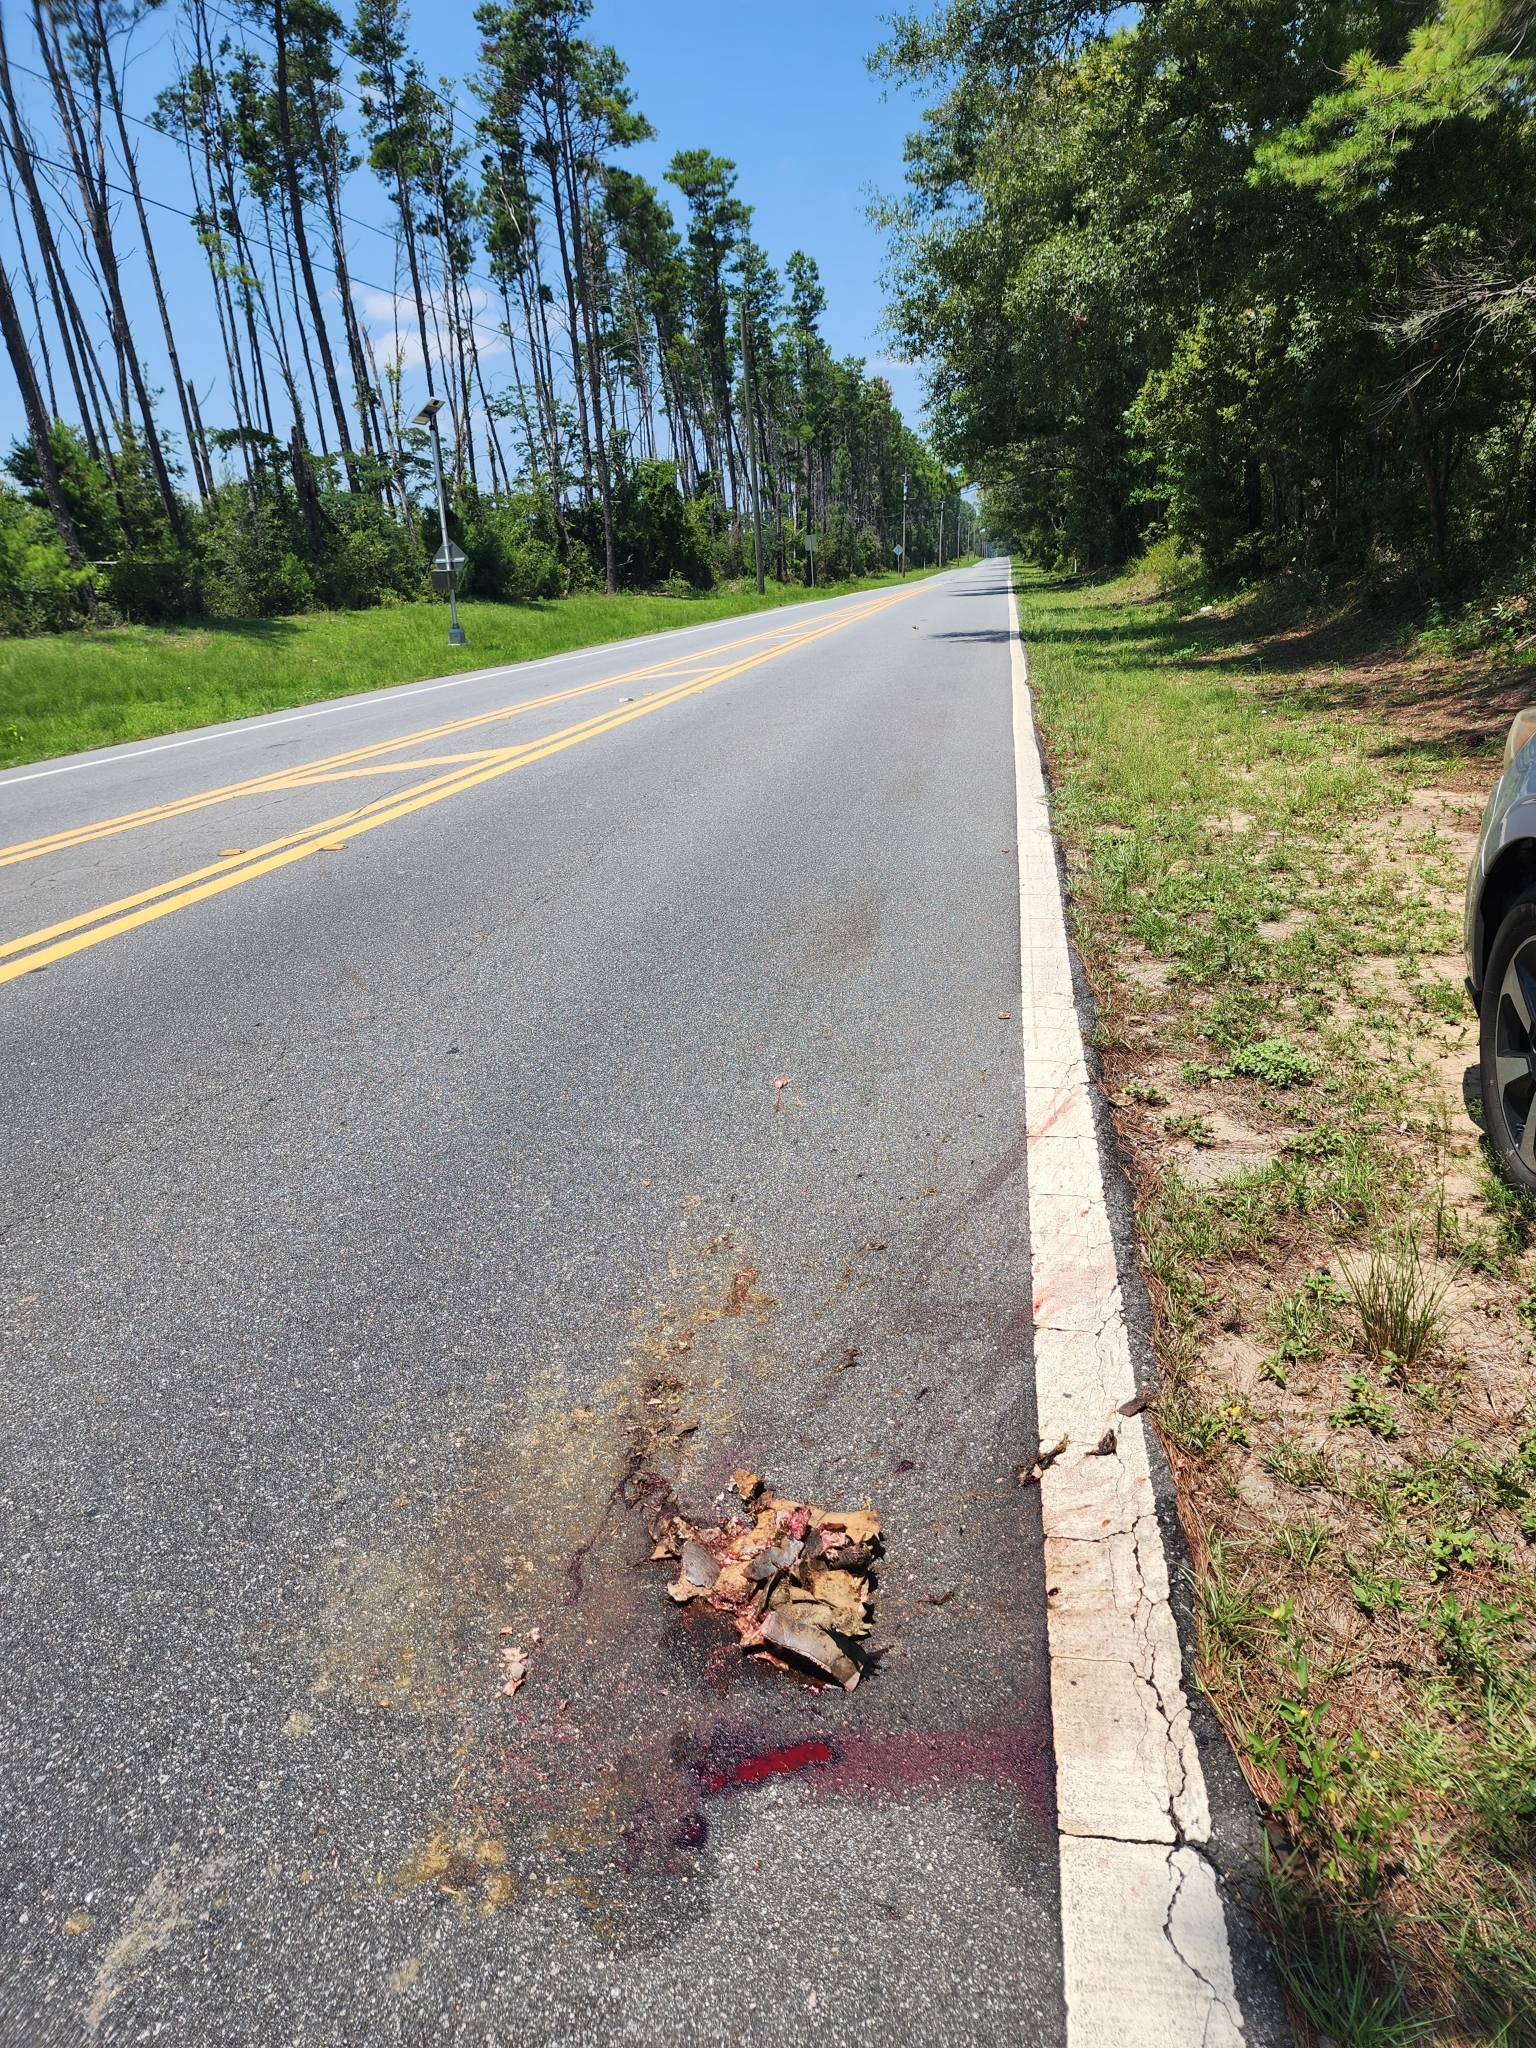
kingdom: Animalia
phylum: Chordata
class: Testudines
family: Testudinidae
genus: Gopherus
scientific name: Gopherus polyphemus
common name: Florida gopher tortoise
